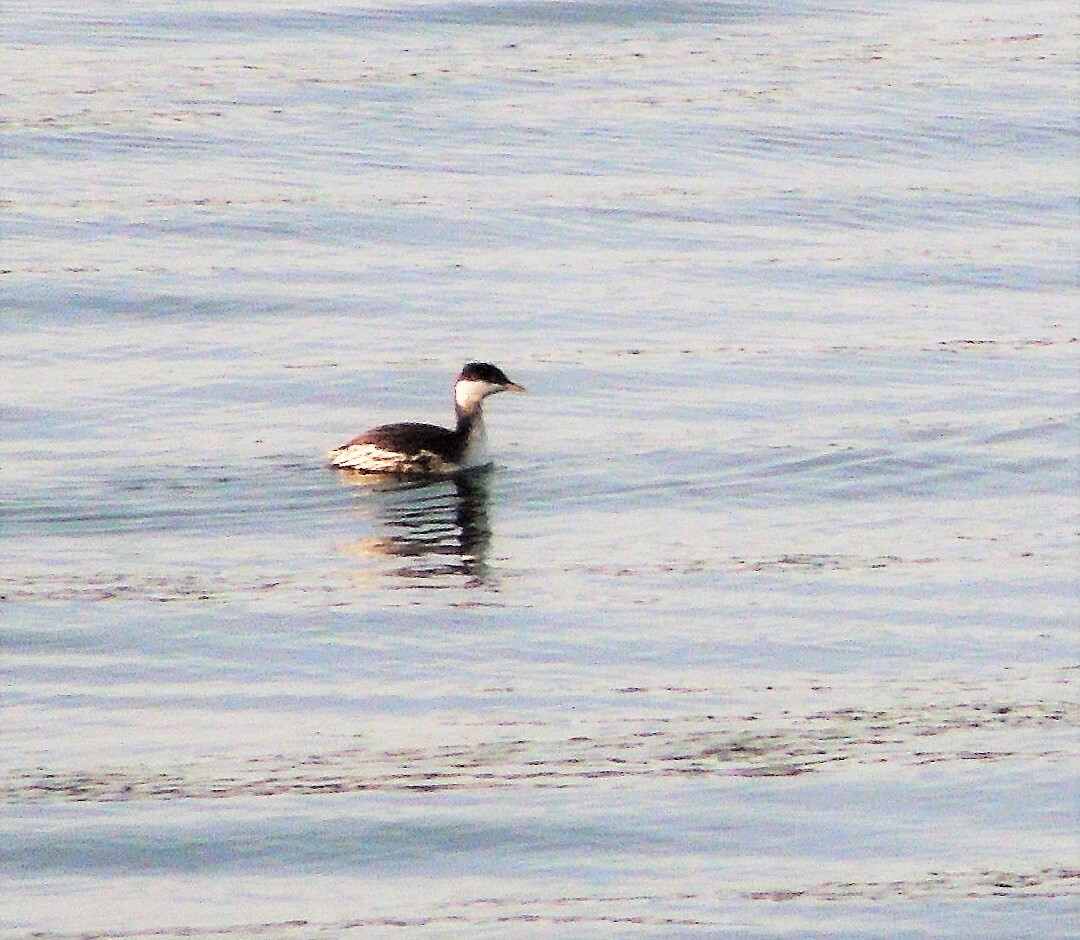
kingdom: Animalia
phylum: Chordata
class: Aves
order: Podicipediformes
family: Podicipedidae
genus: Podiceps
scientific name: Podiceps auritus
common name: Horned grebe
